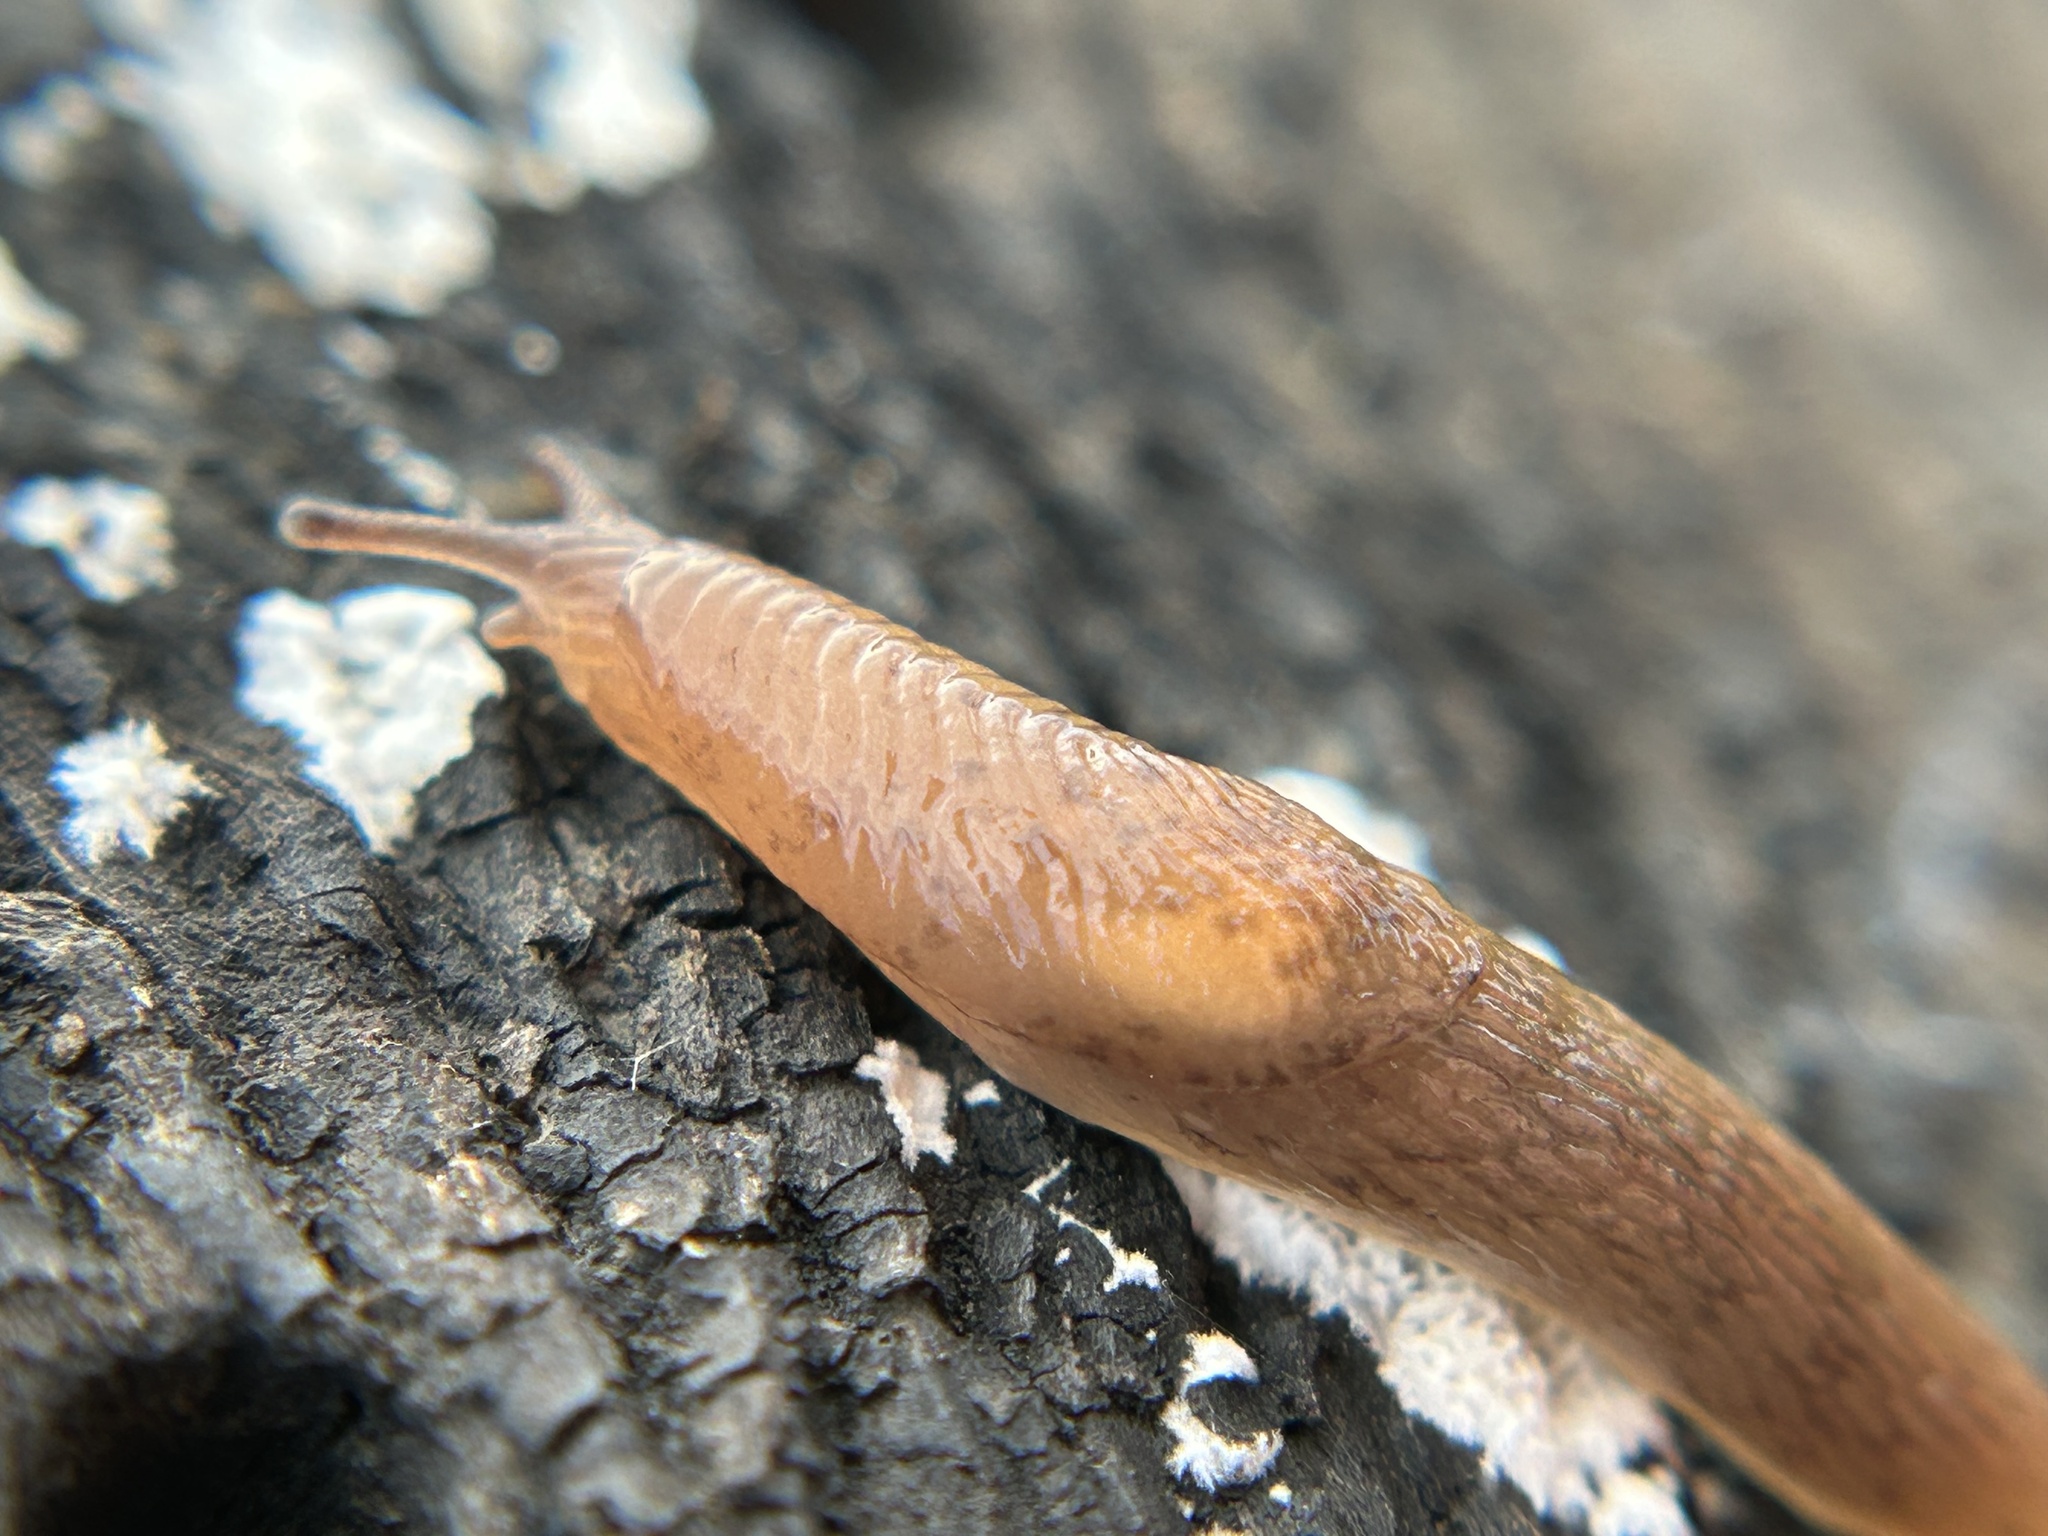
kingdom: Animalia
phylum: Mollusca
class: Gastropoda
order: Stylommatophora
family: Agriolimacidae
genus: Deroceras
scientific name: Deroceras invadens
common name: Caruana's slug
